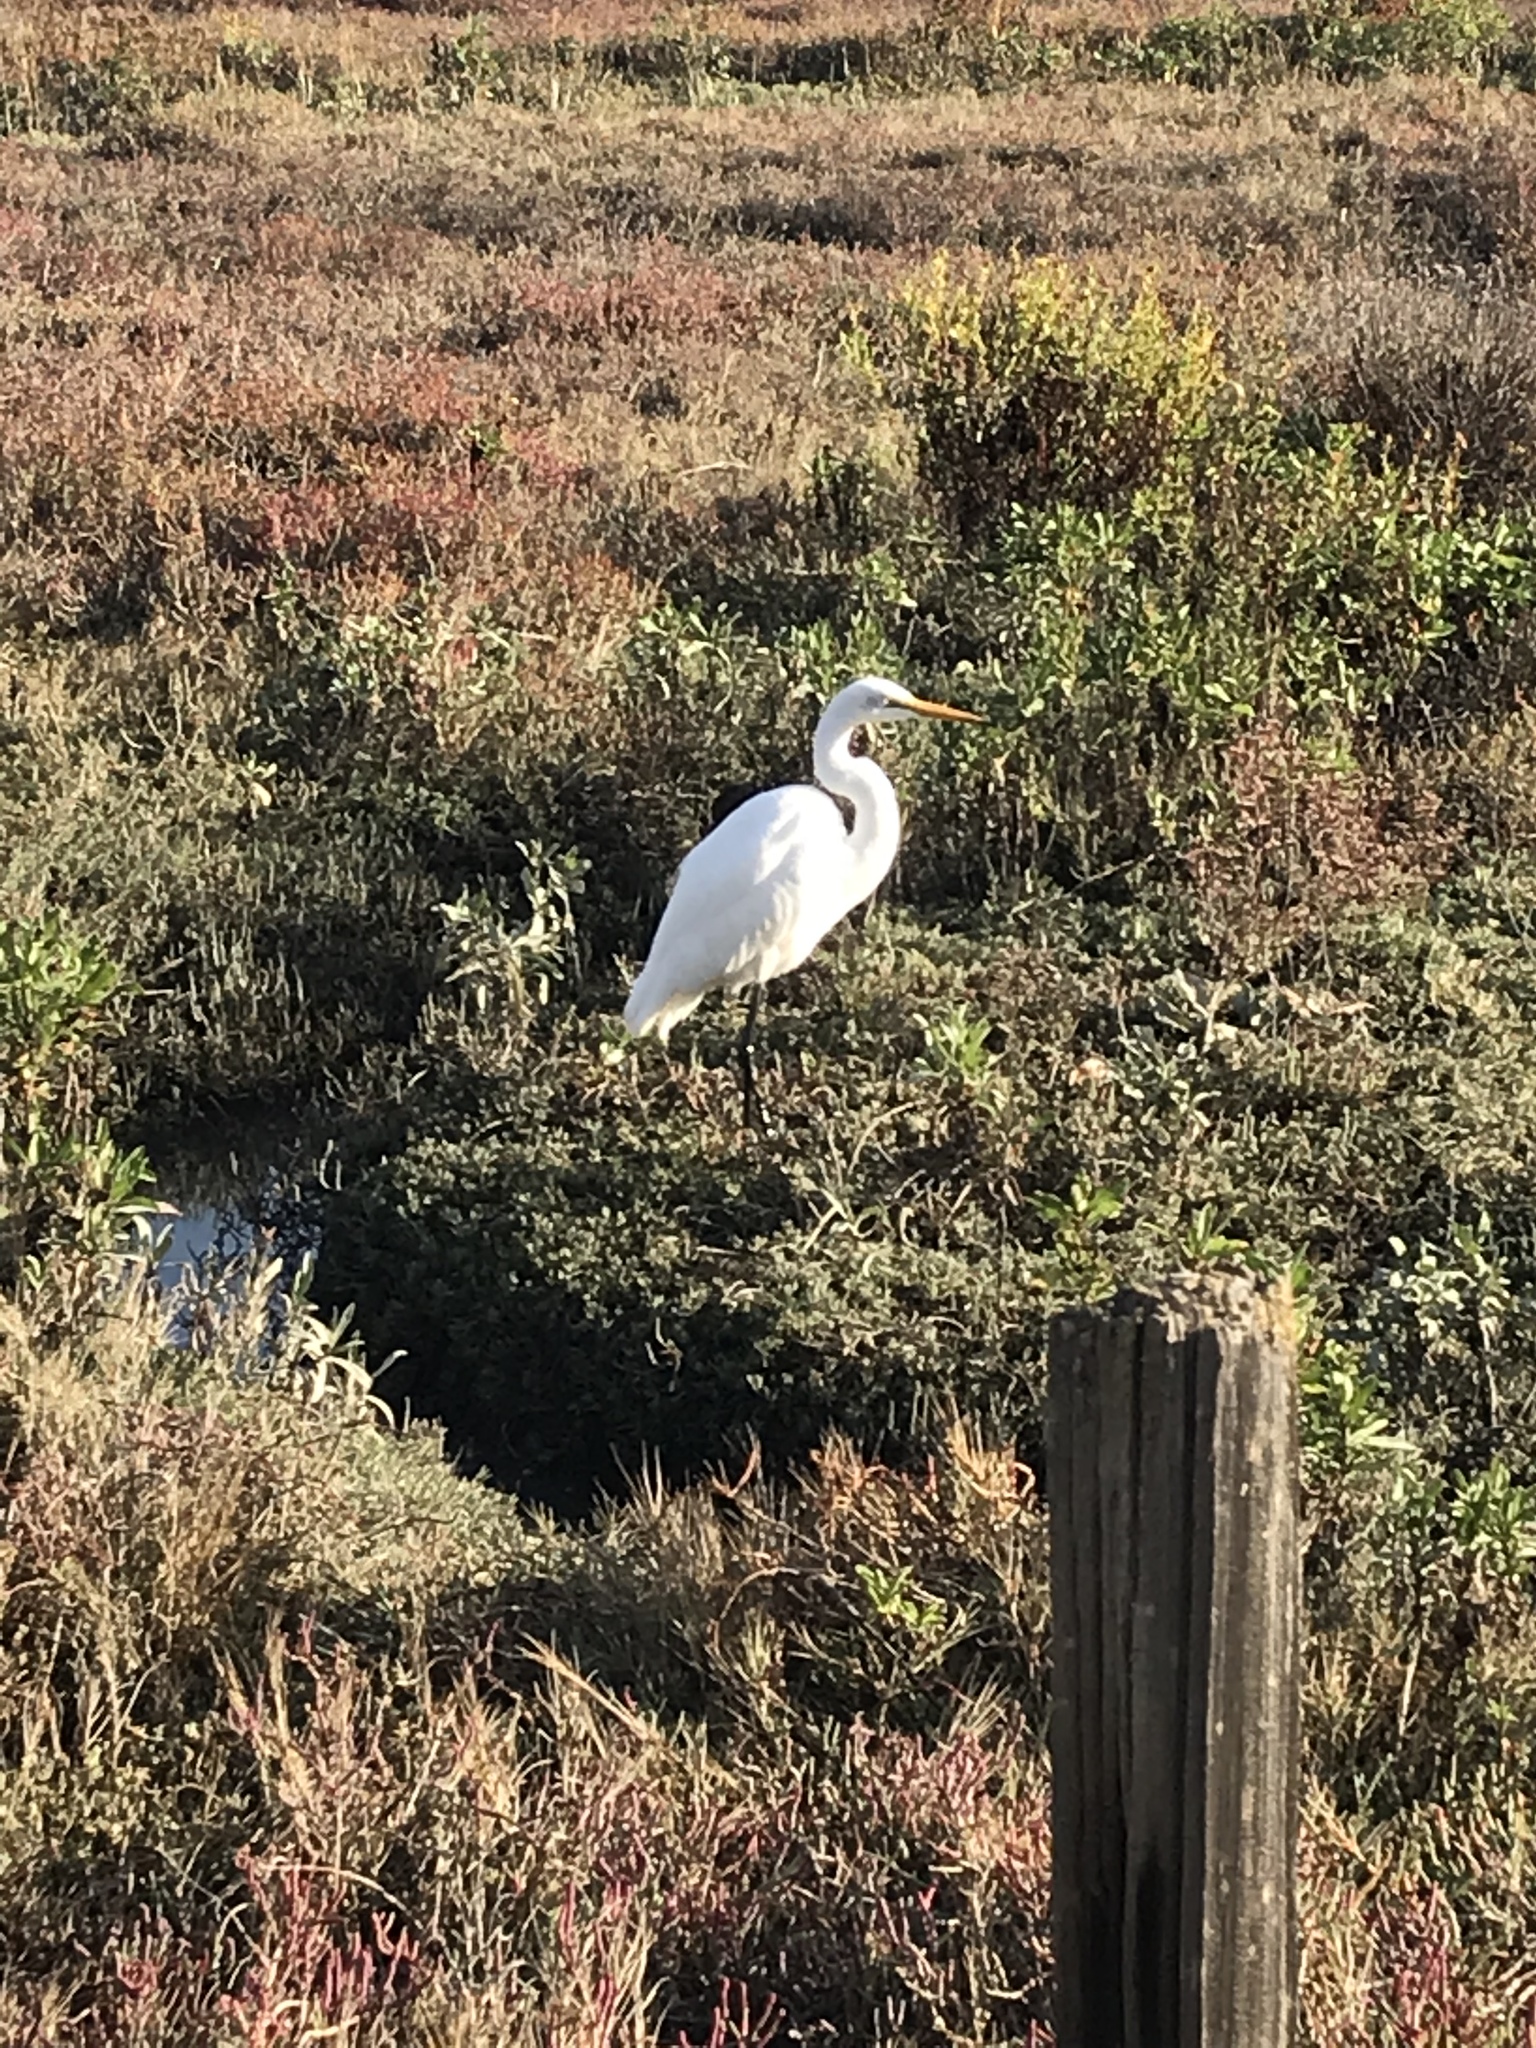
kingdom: Animalia
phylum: Chordata
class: Aves
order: Pelecaniformes
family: Ardeidae
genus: Ardea
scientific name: Ardea alba
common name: Great egret
